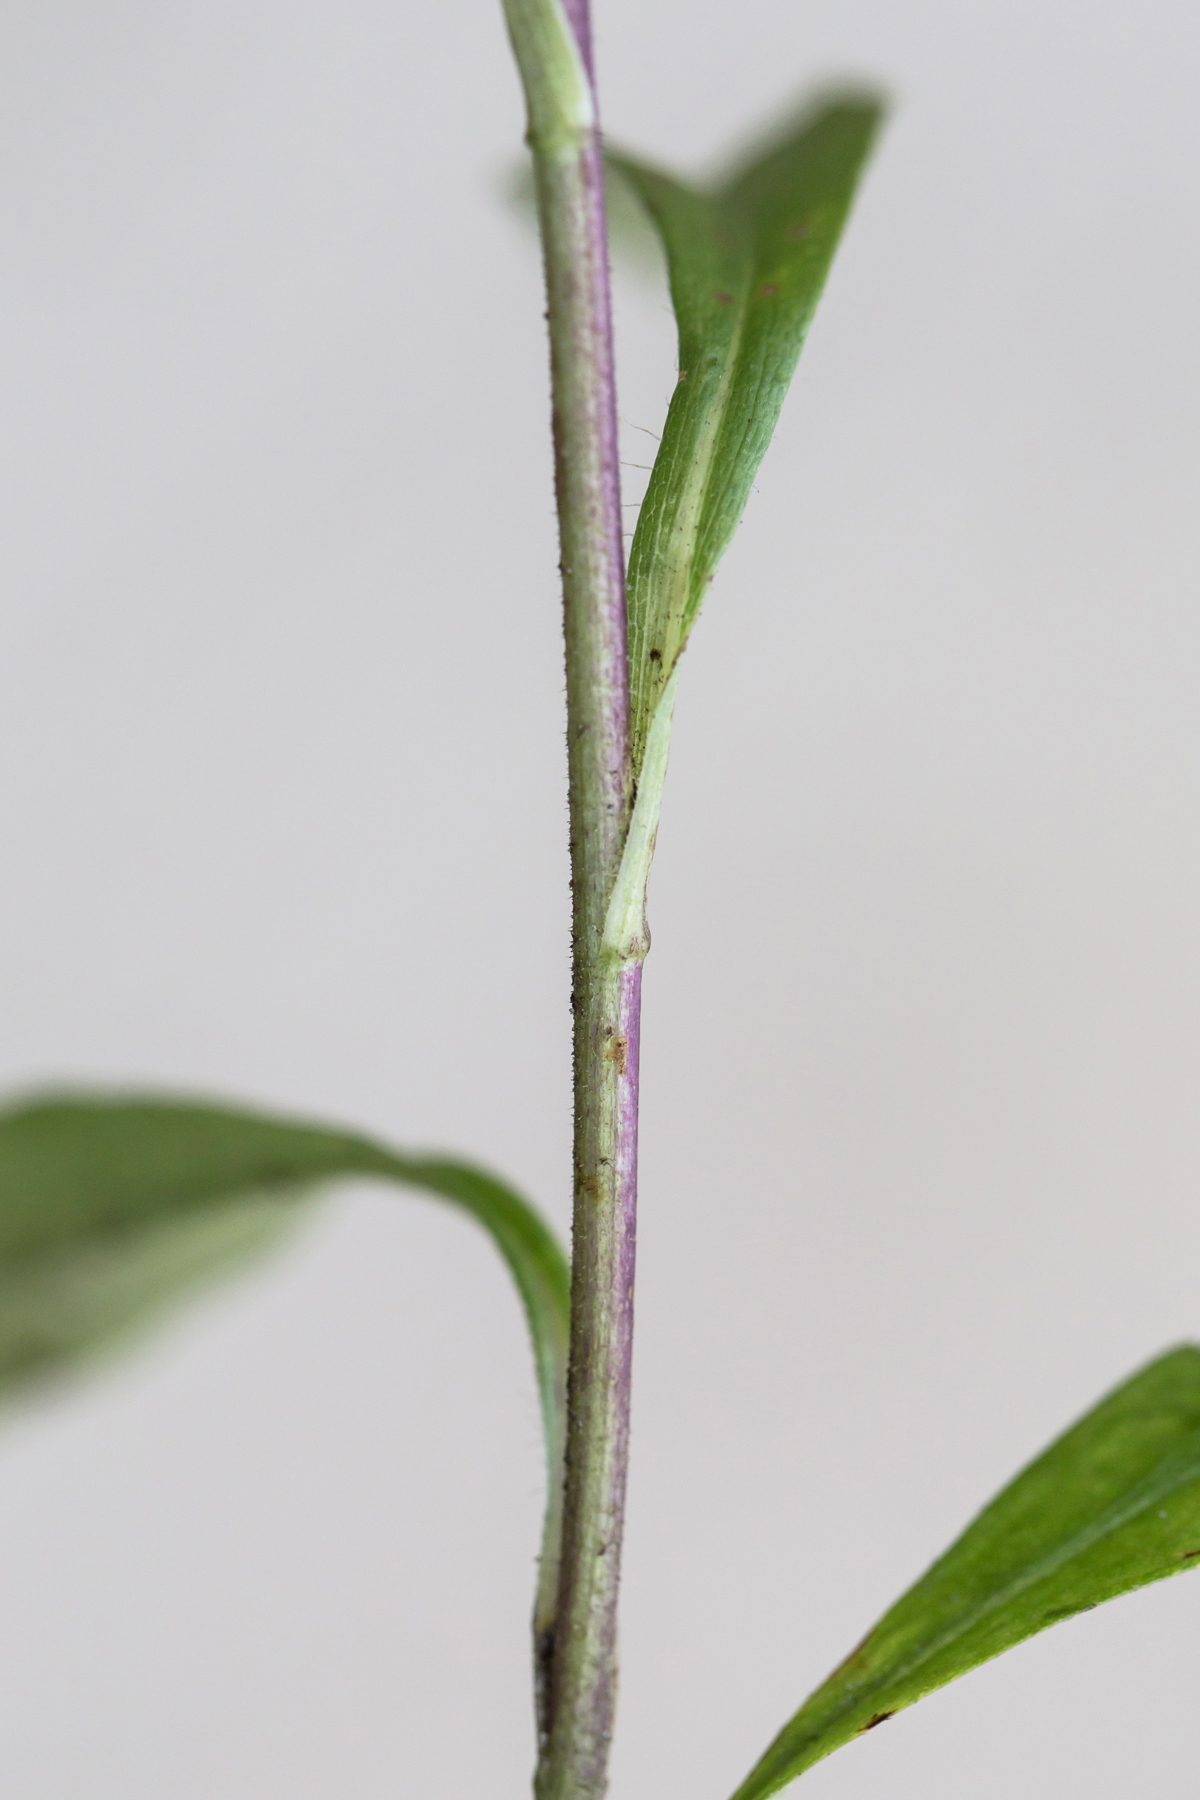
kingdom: Plantae
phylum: Tracheophyta
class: Magnoliopsida
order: Asterales
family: Asteraceae
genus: Eurybia
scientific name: Eurybia spectabilis
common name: Low showy aster
